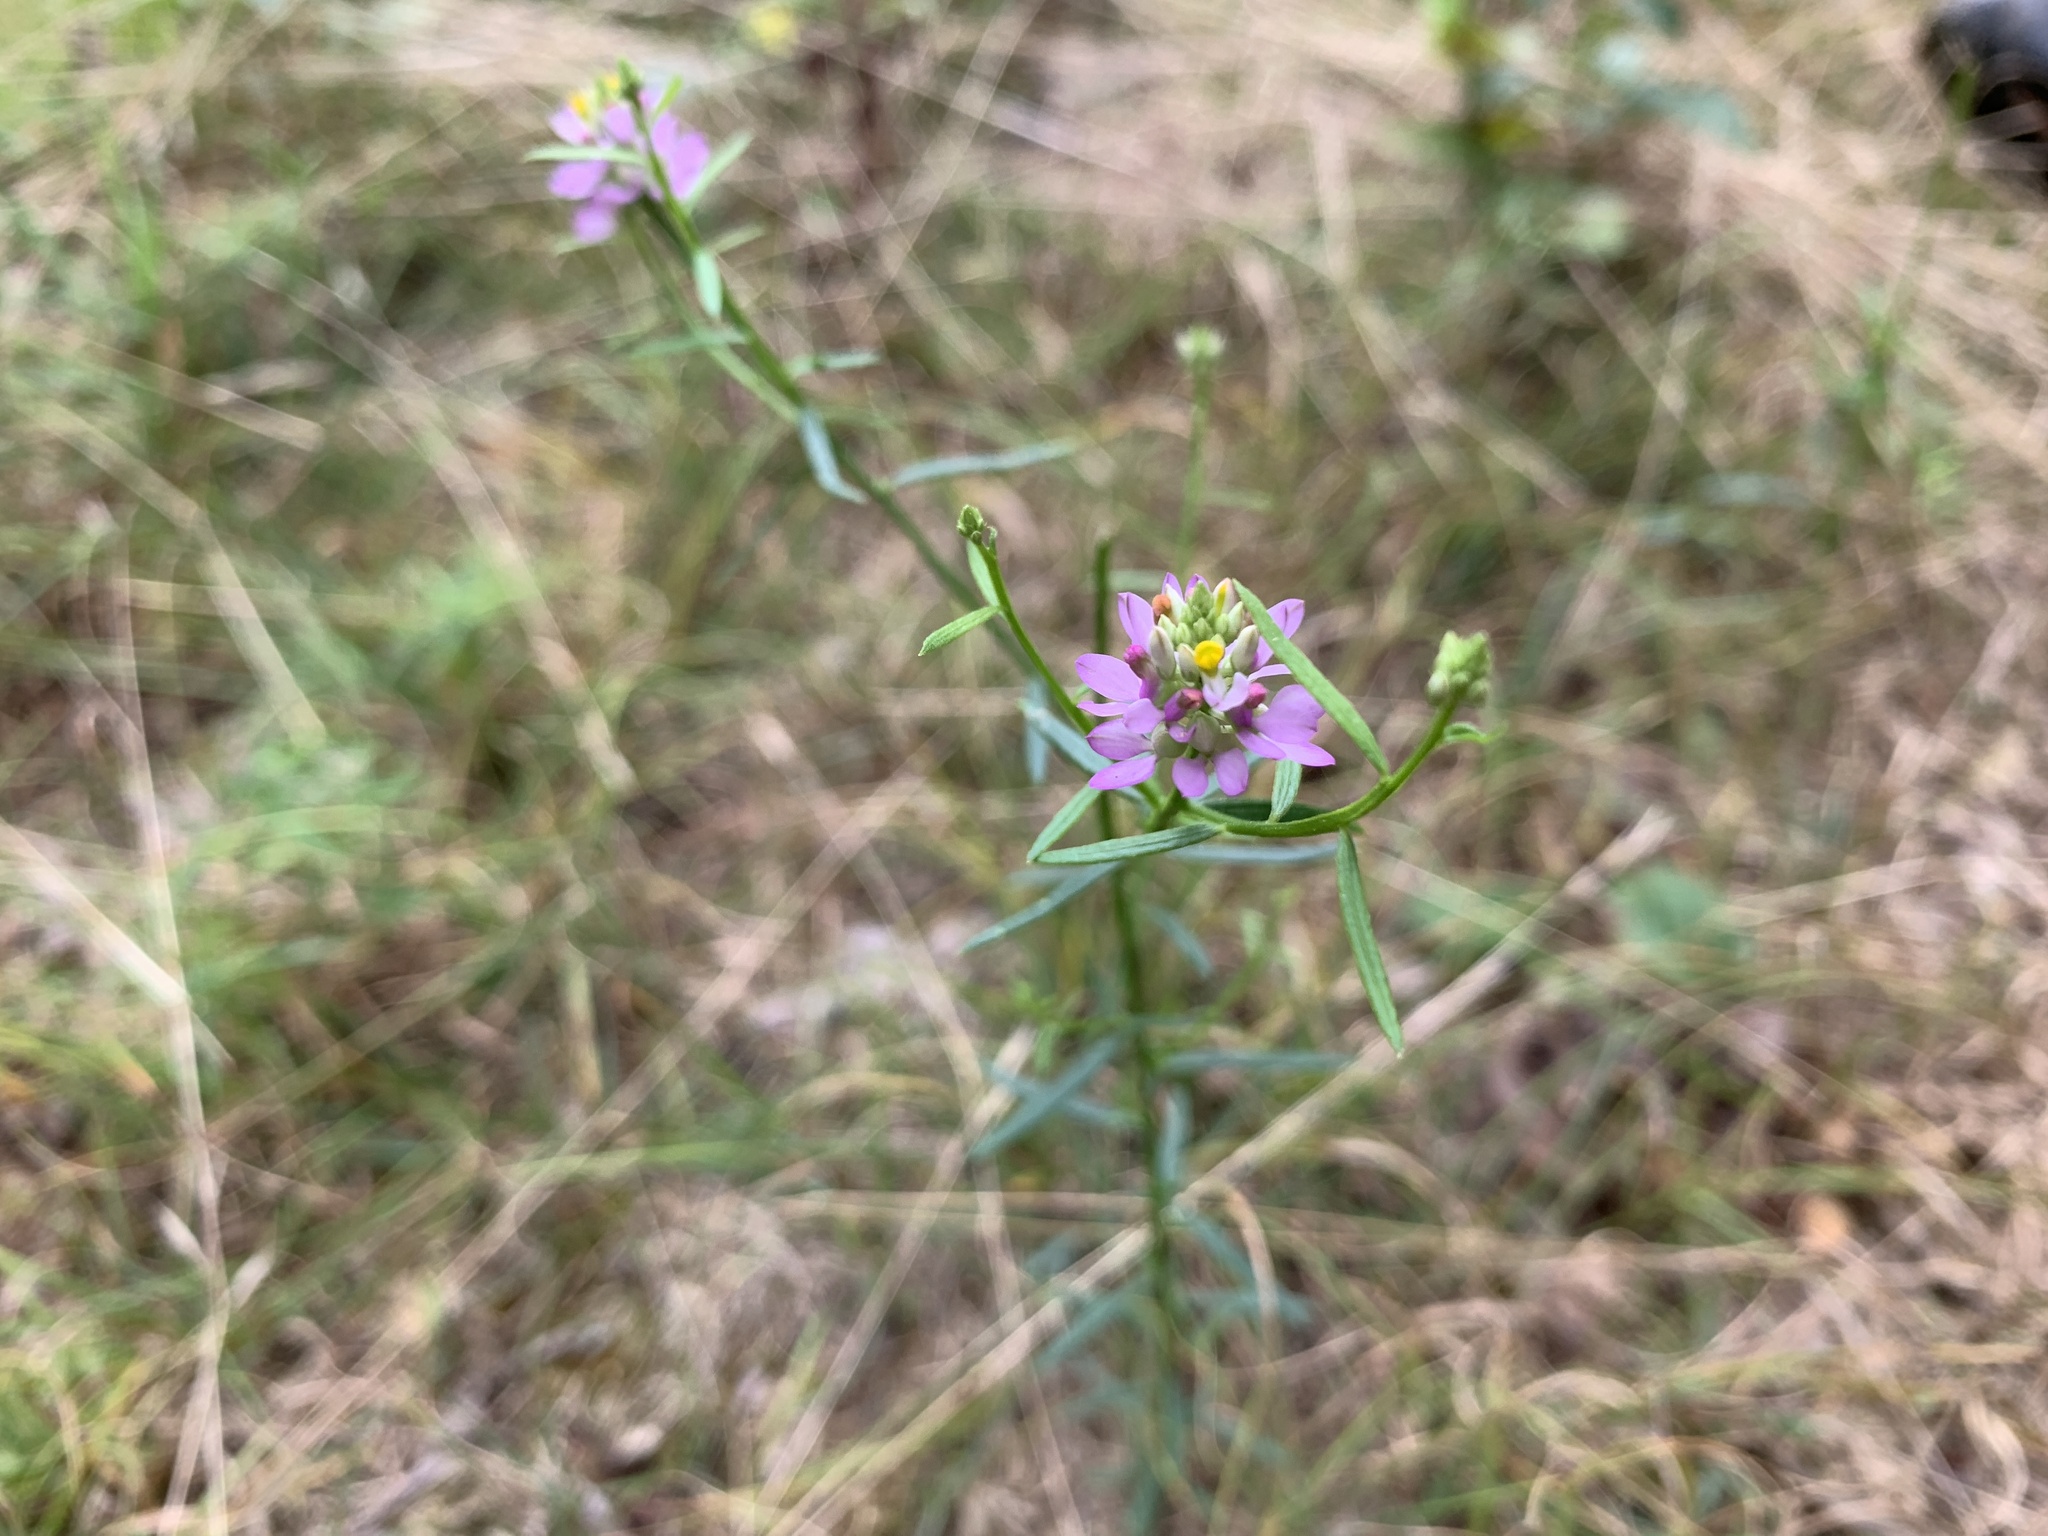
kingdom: Plantae
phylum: Tracheophyta
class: Magnoliopsida
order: Fabales
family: Polygalaceae
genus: Polygala
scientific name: Polygala curtissii
